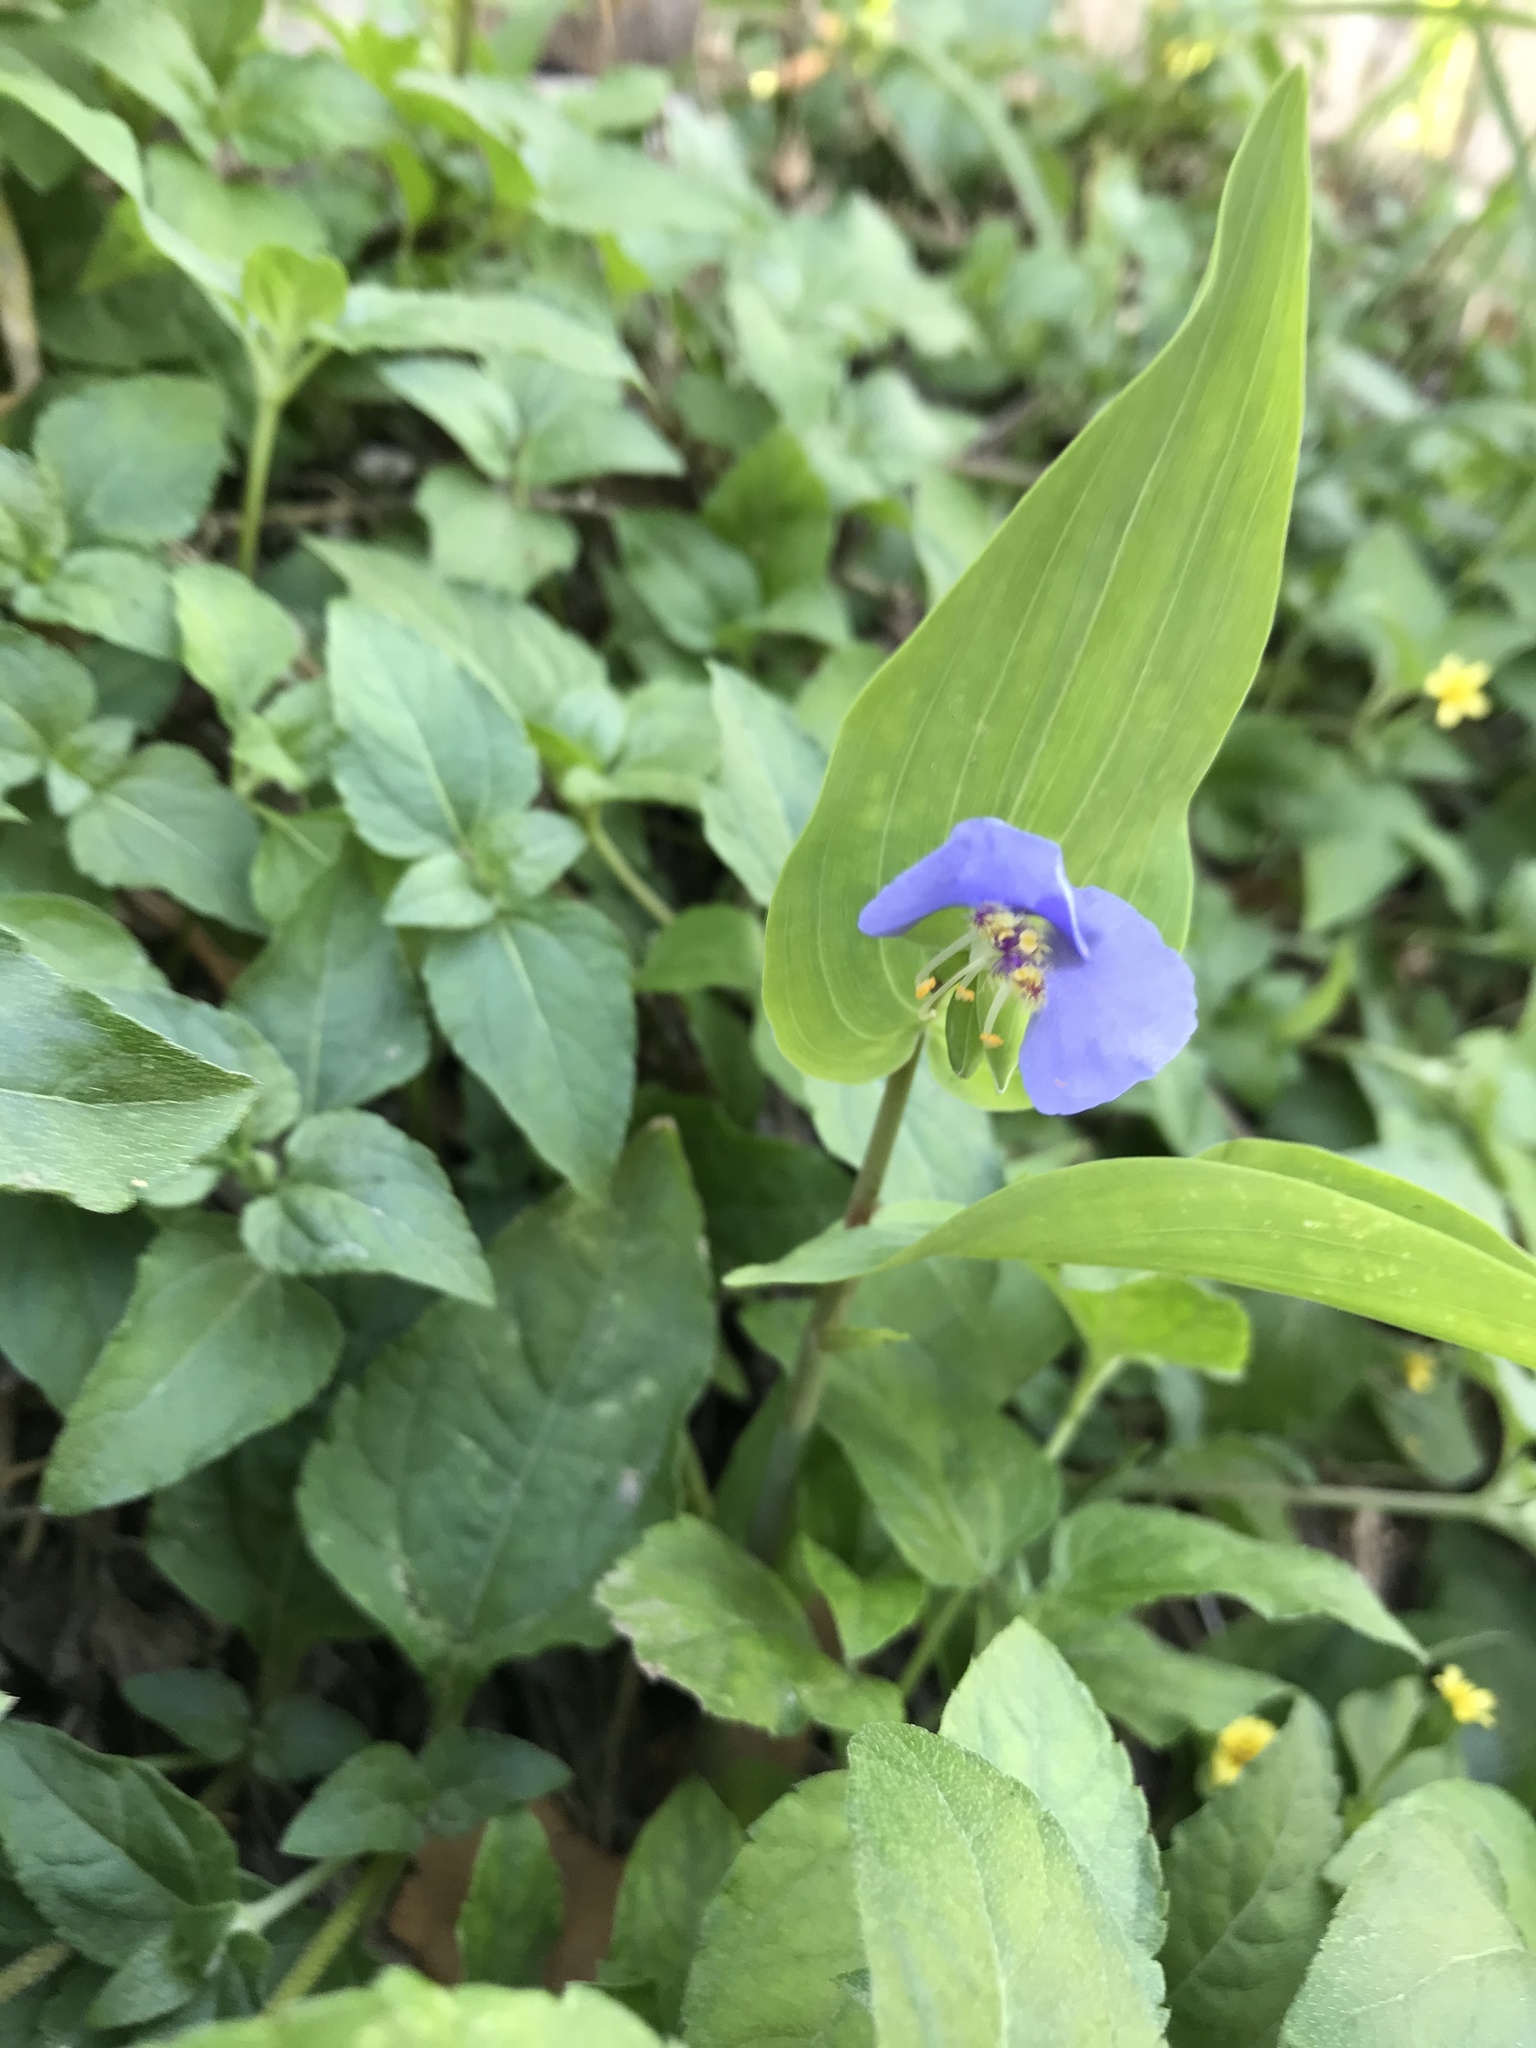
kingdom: Plantae
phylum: Tracheophyta
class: Liliopsida
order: Commelinales
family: Commelinaceae
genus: Tinantia
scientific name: Tinantia anomala
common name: False dayflower
